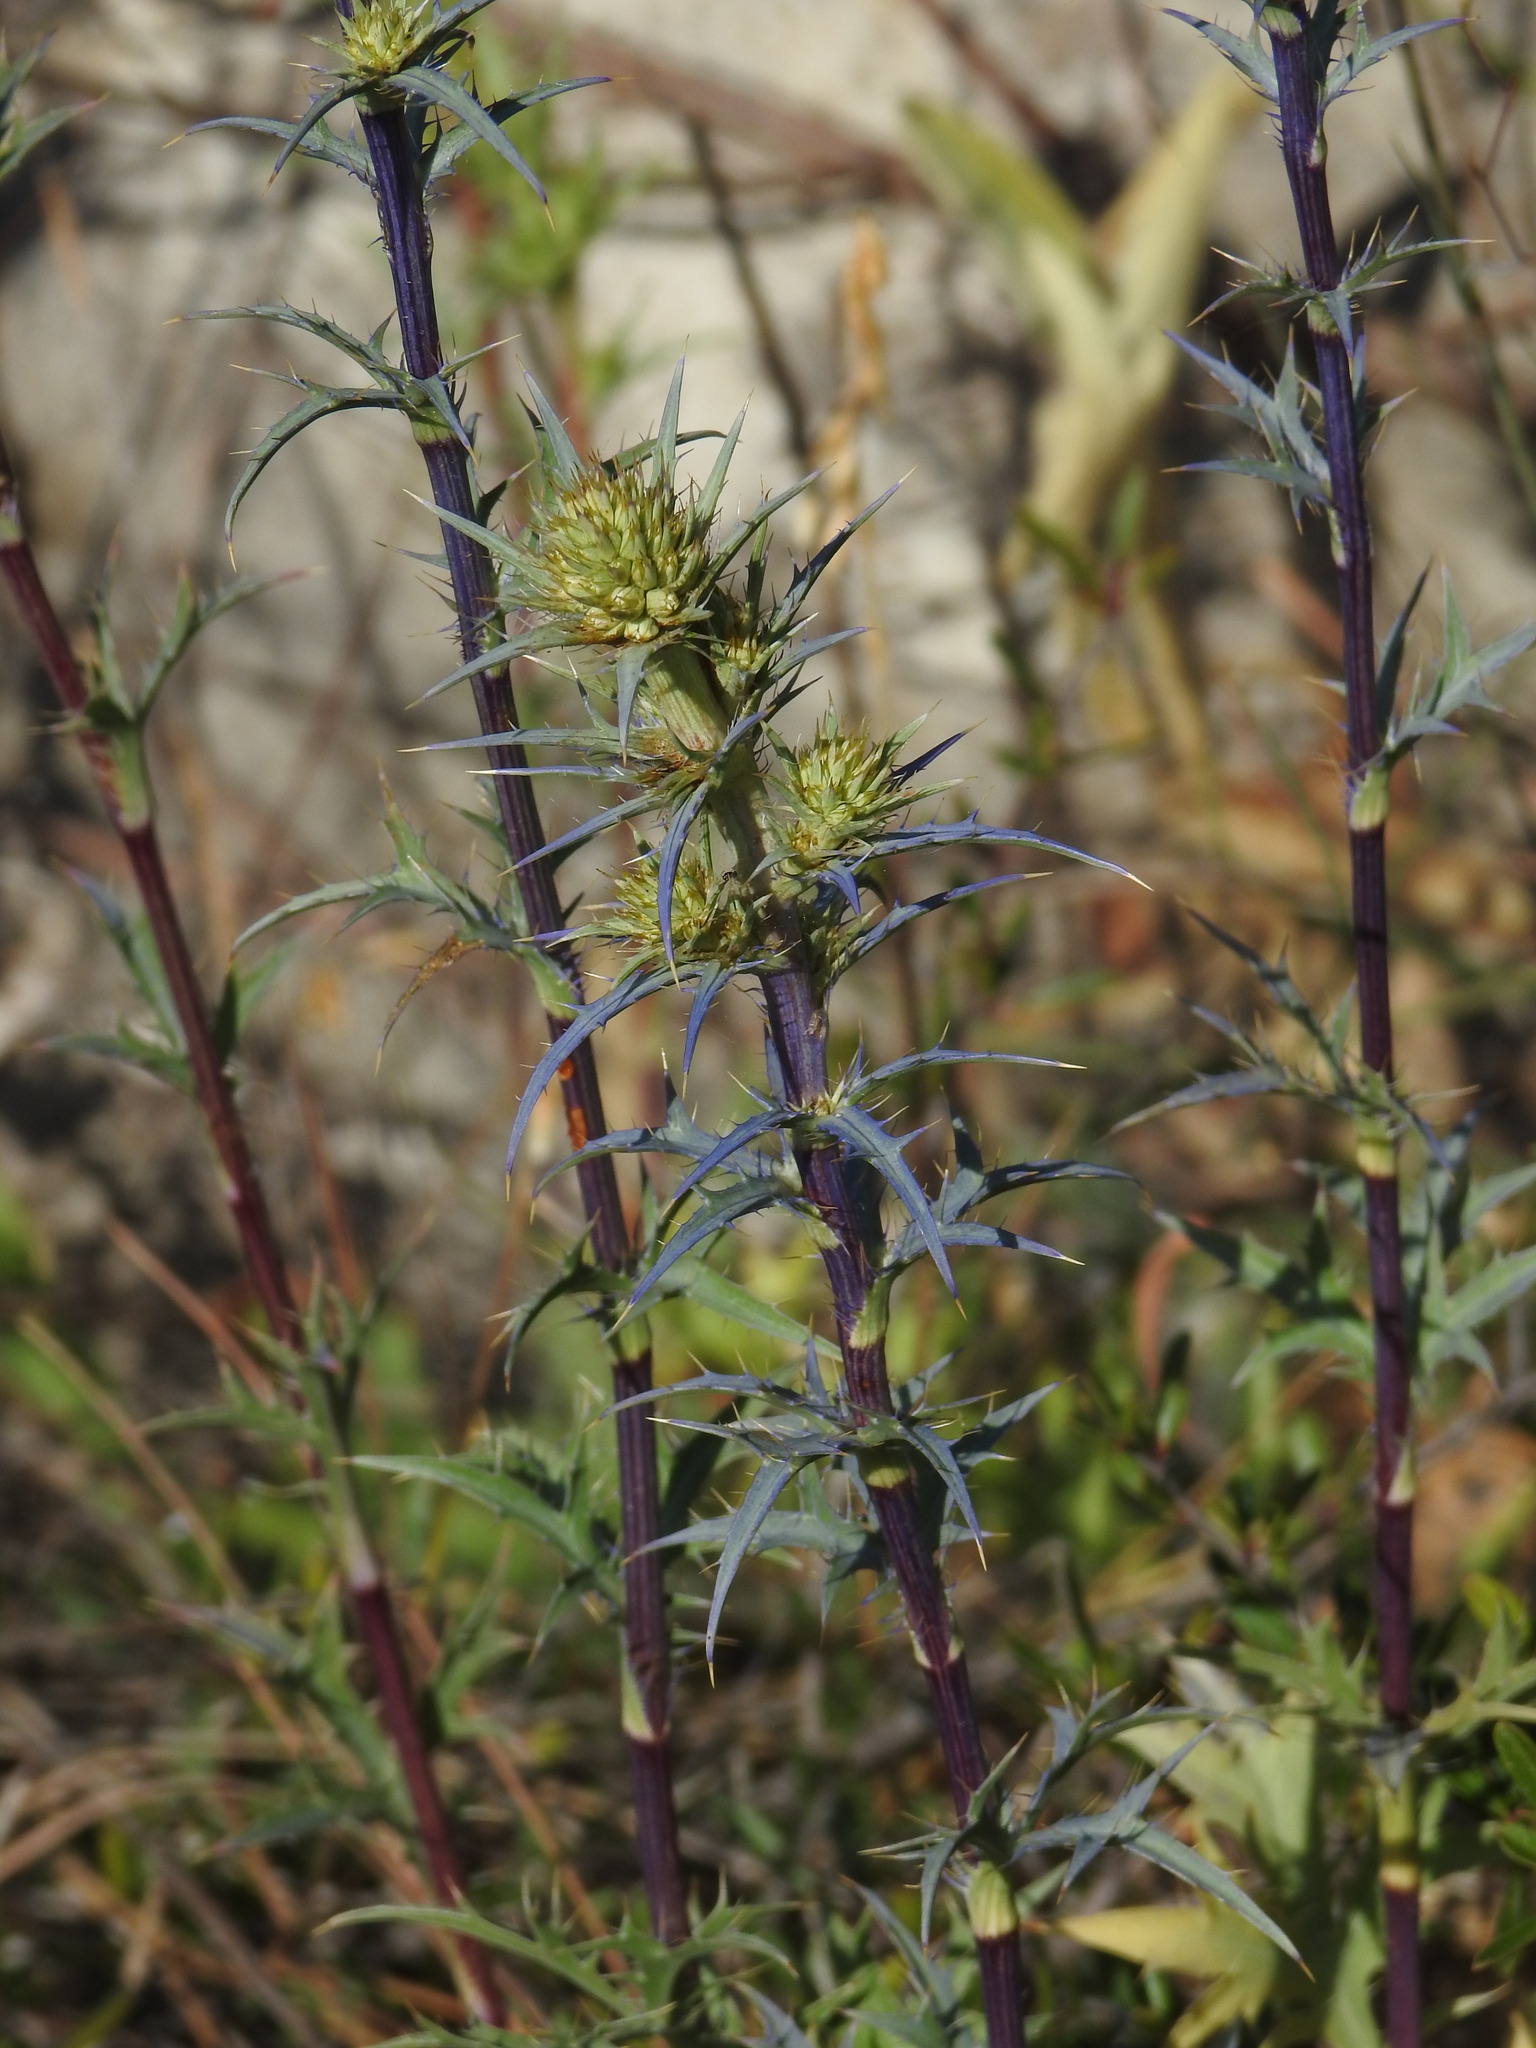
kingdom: Plantae
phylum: Tracheophyta
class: Magnoliopsida
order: Apiales
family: Apiaceae
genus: Eryngium
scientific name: Eryngium dilatatum
